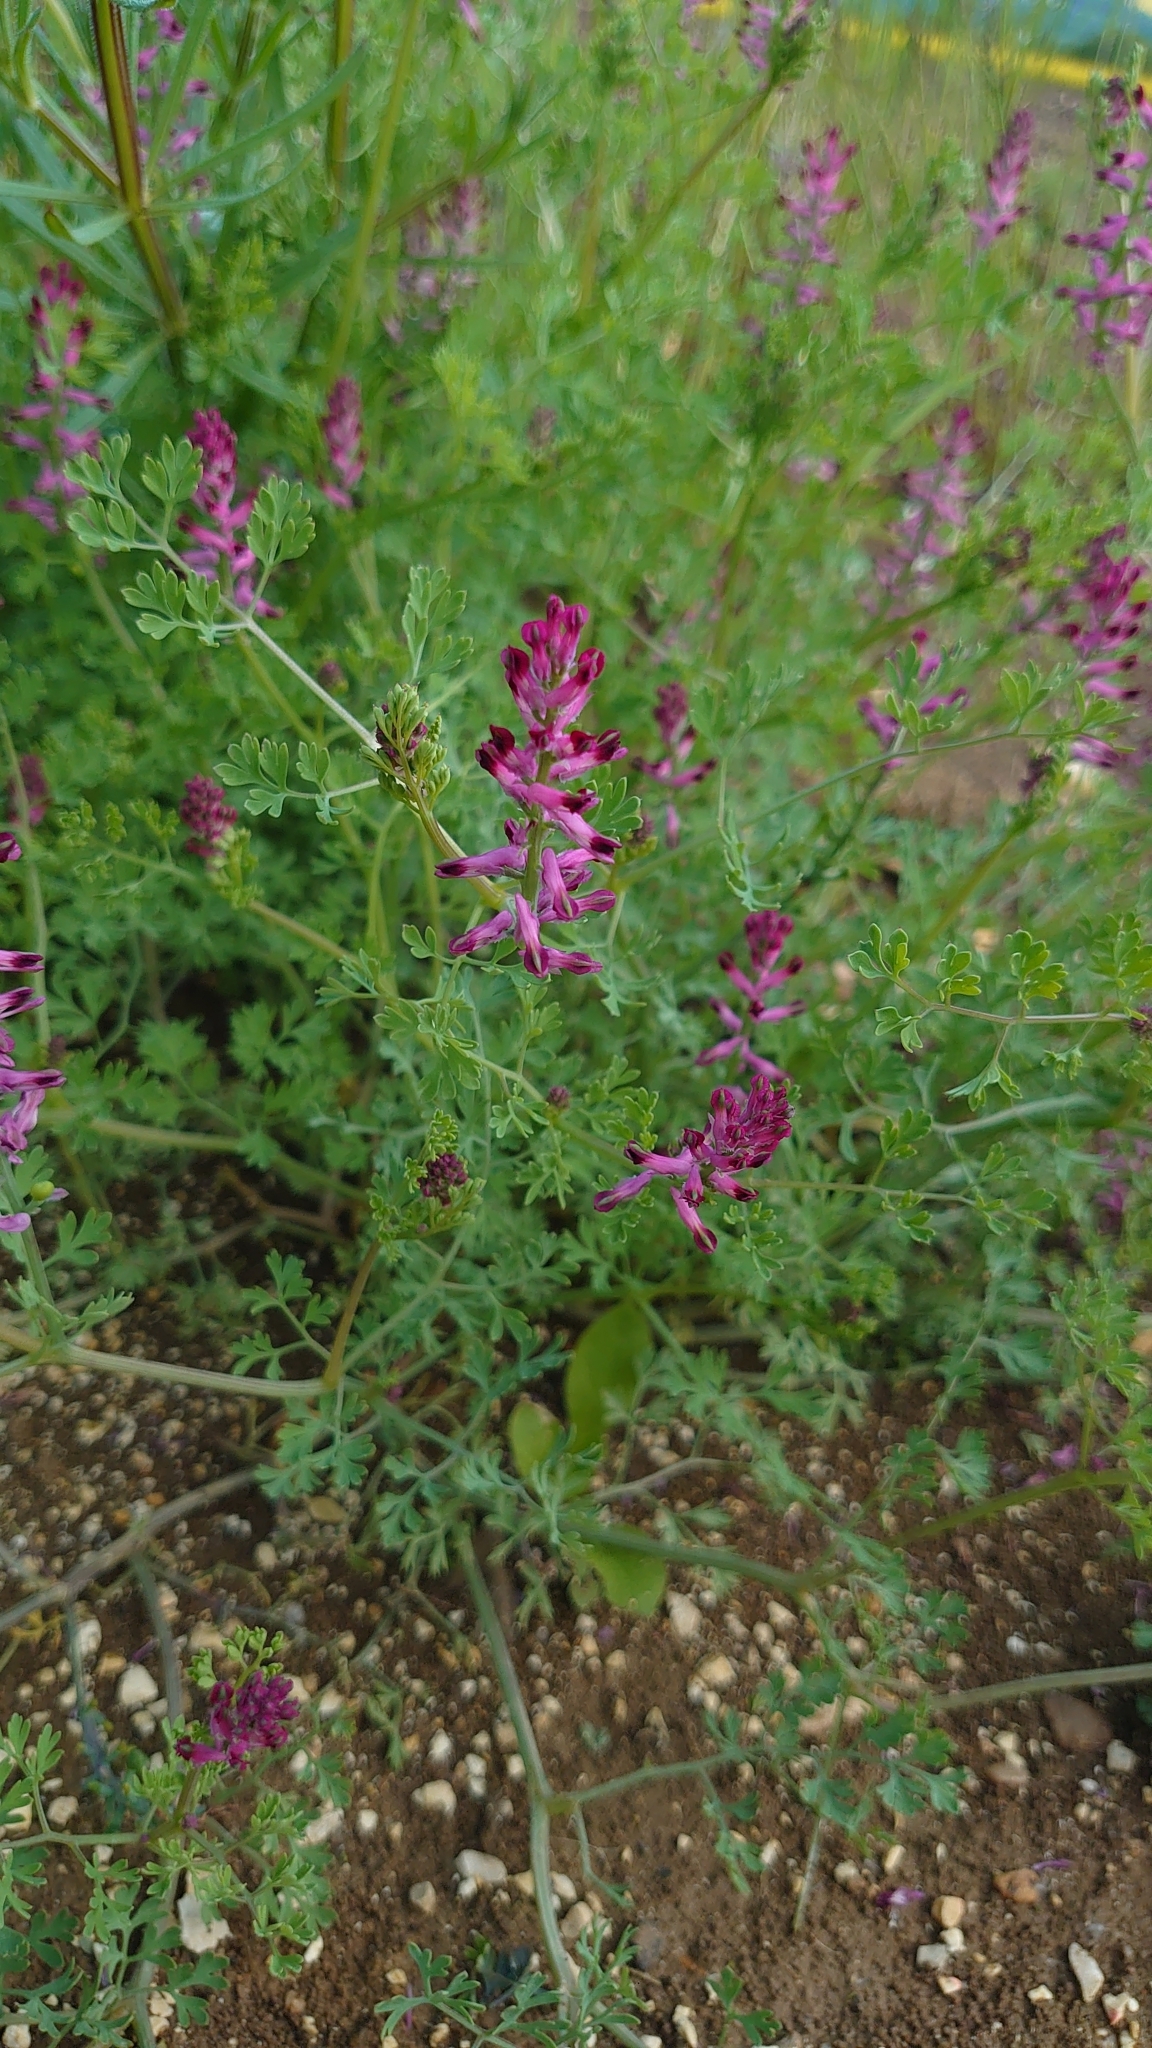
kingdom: Plantae
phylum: Tracheophyta
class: Magnoliopsida
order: Ranunculales
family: Papaveraceae
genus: Fumaria
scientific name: Fumaria officinalis
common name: Common fumitory
